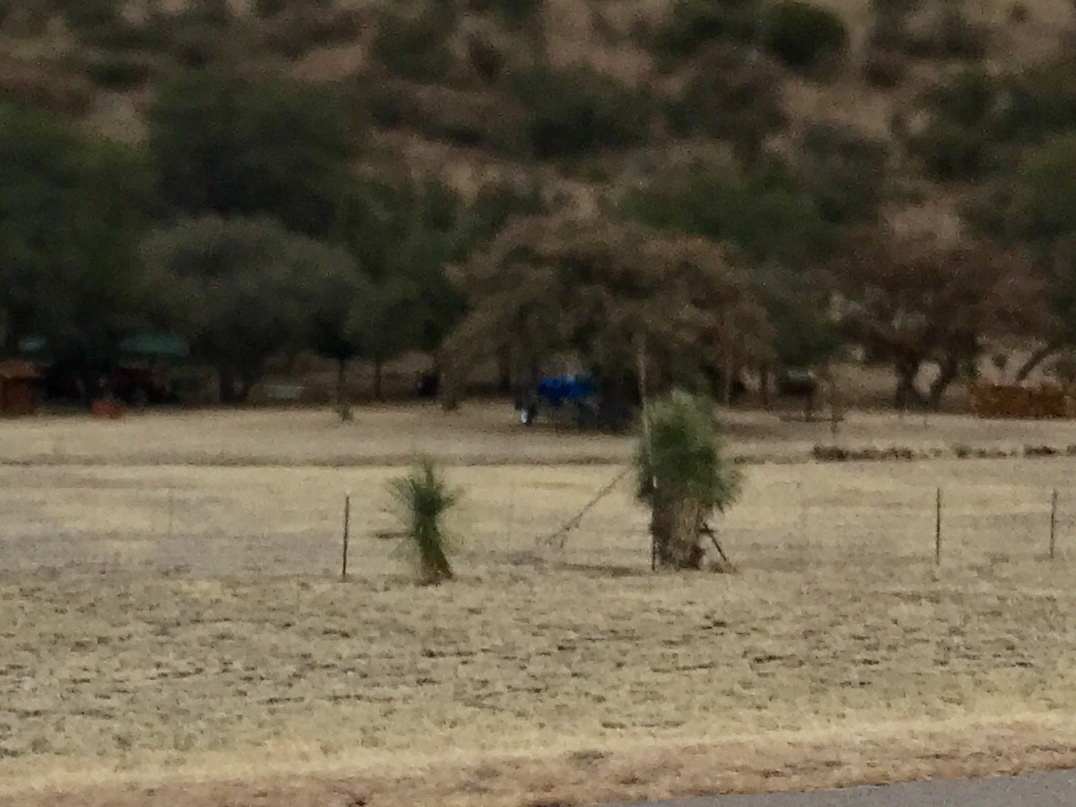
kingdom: Plantae
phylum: Tracheophyta
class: Liliopsida
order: Asparagales
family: Asparagaceae
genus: Yucca
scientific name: Yucca elata
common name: Palmella
